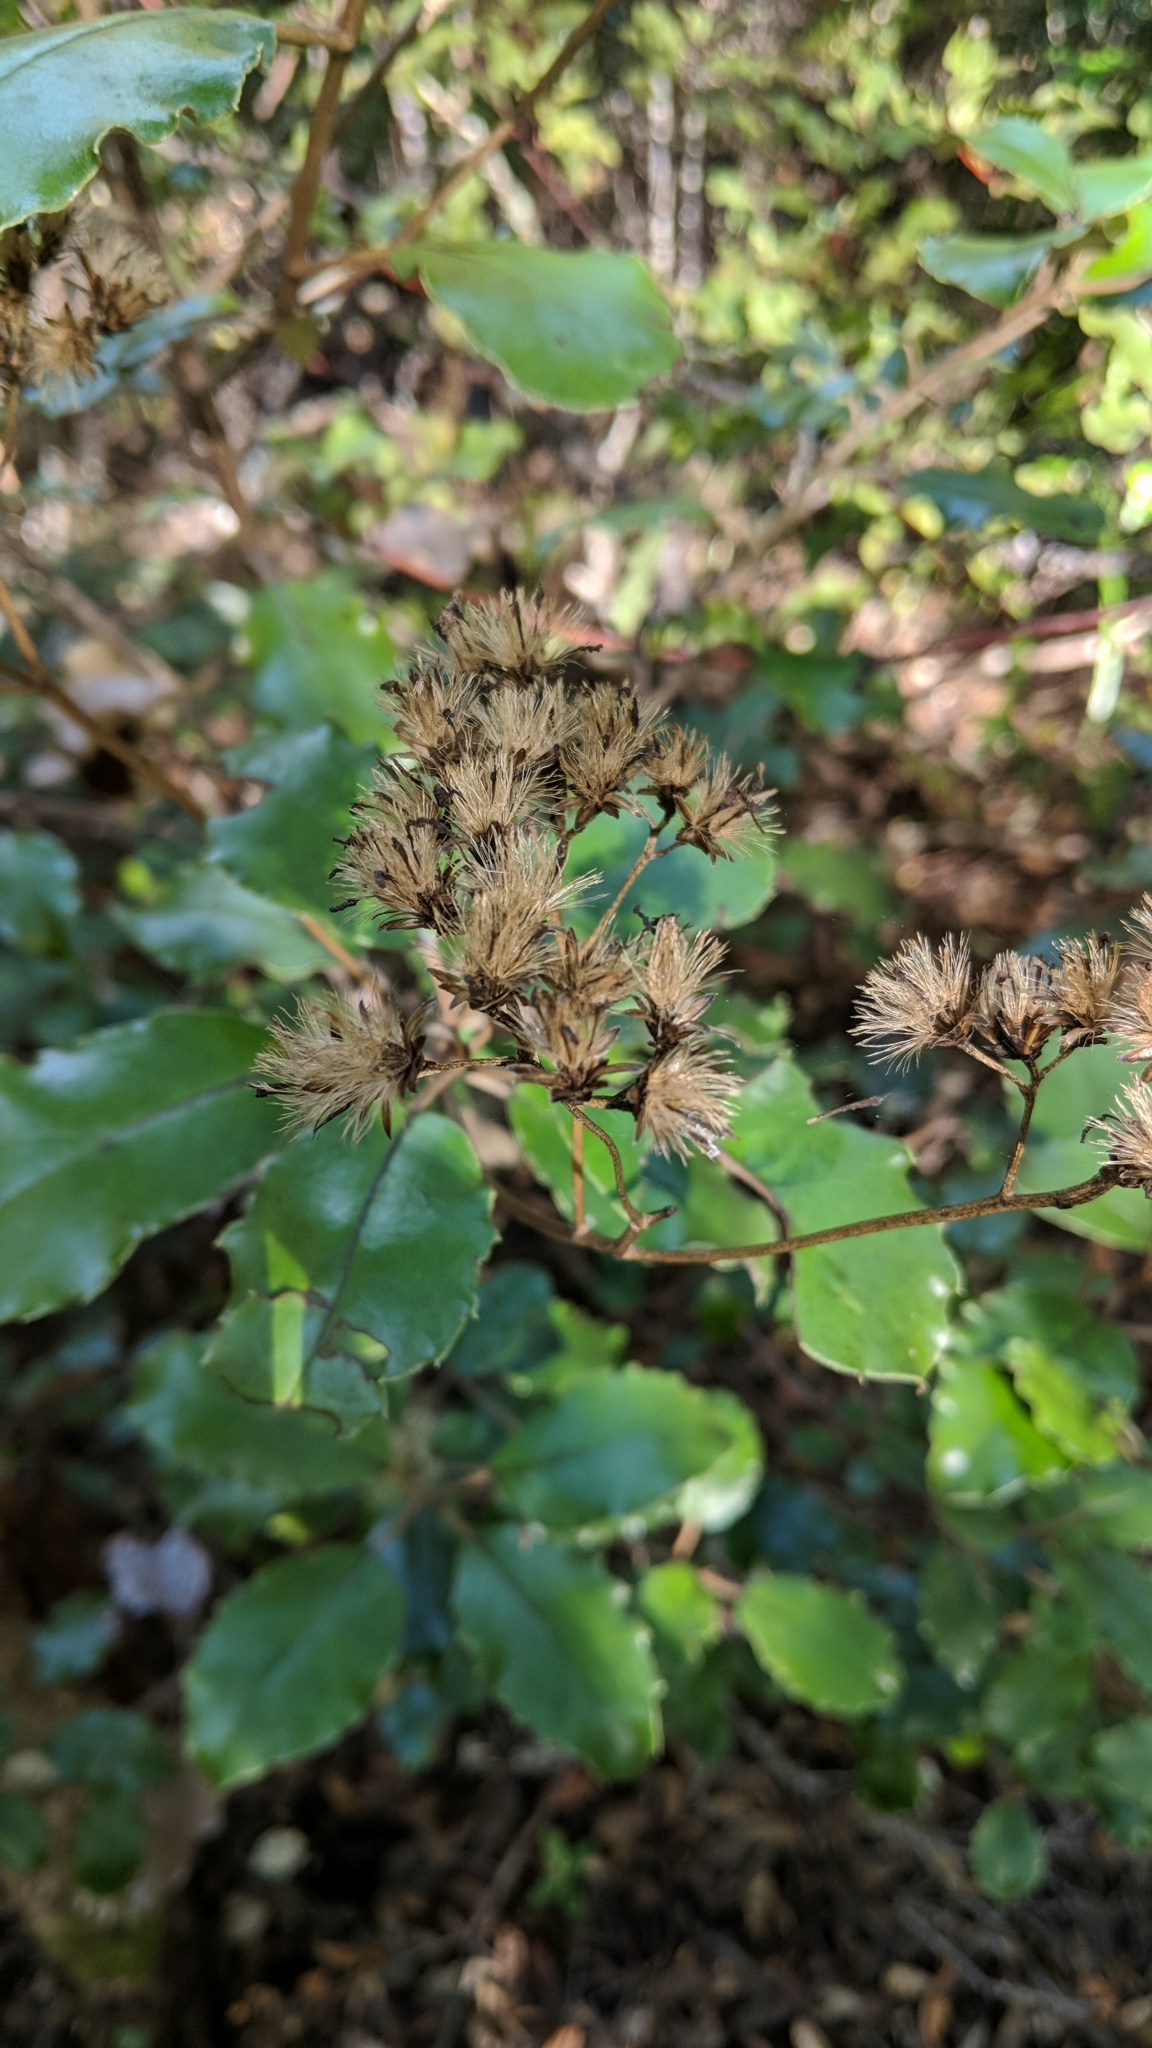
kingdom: Plantae
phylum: Tracheophyta
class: Magnoliopsida
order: Asterales
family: Asteraceae
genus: Olearia
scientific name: Olearia furfuracea
